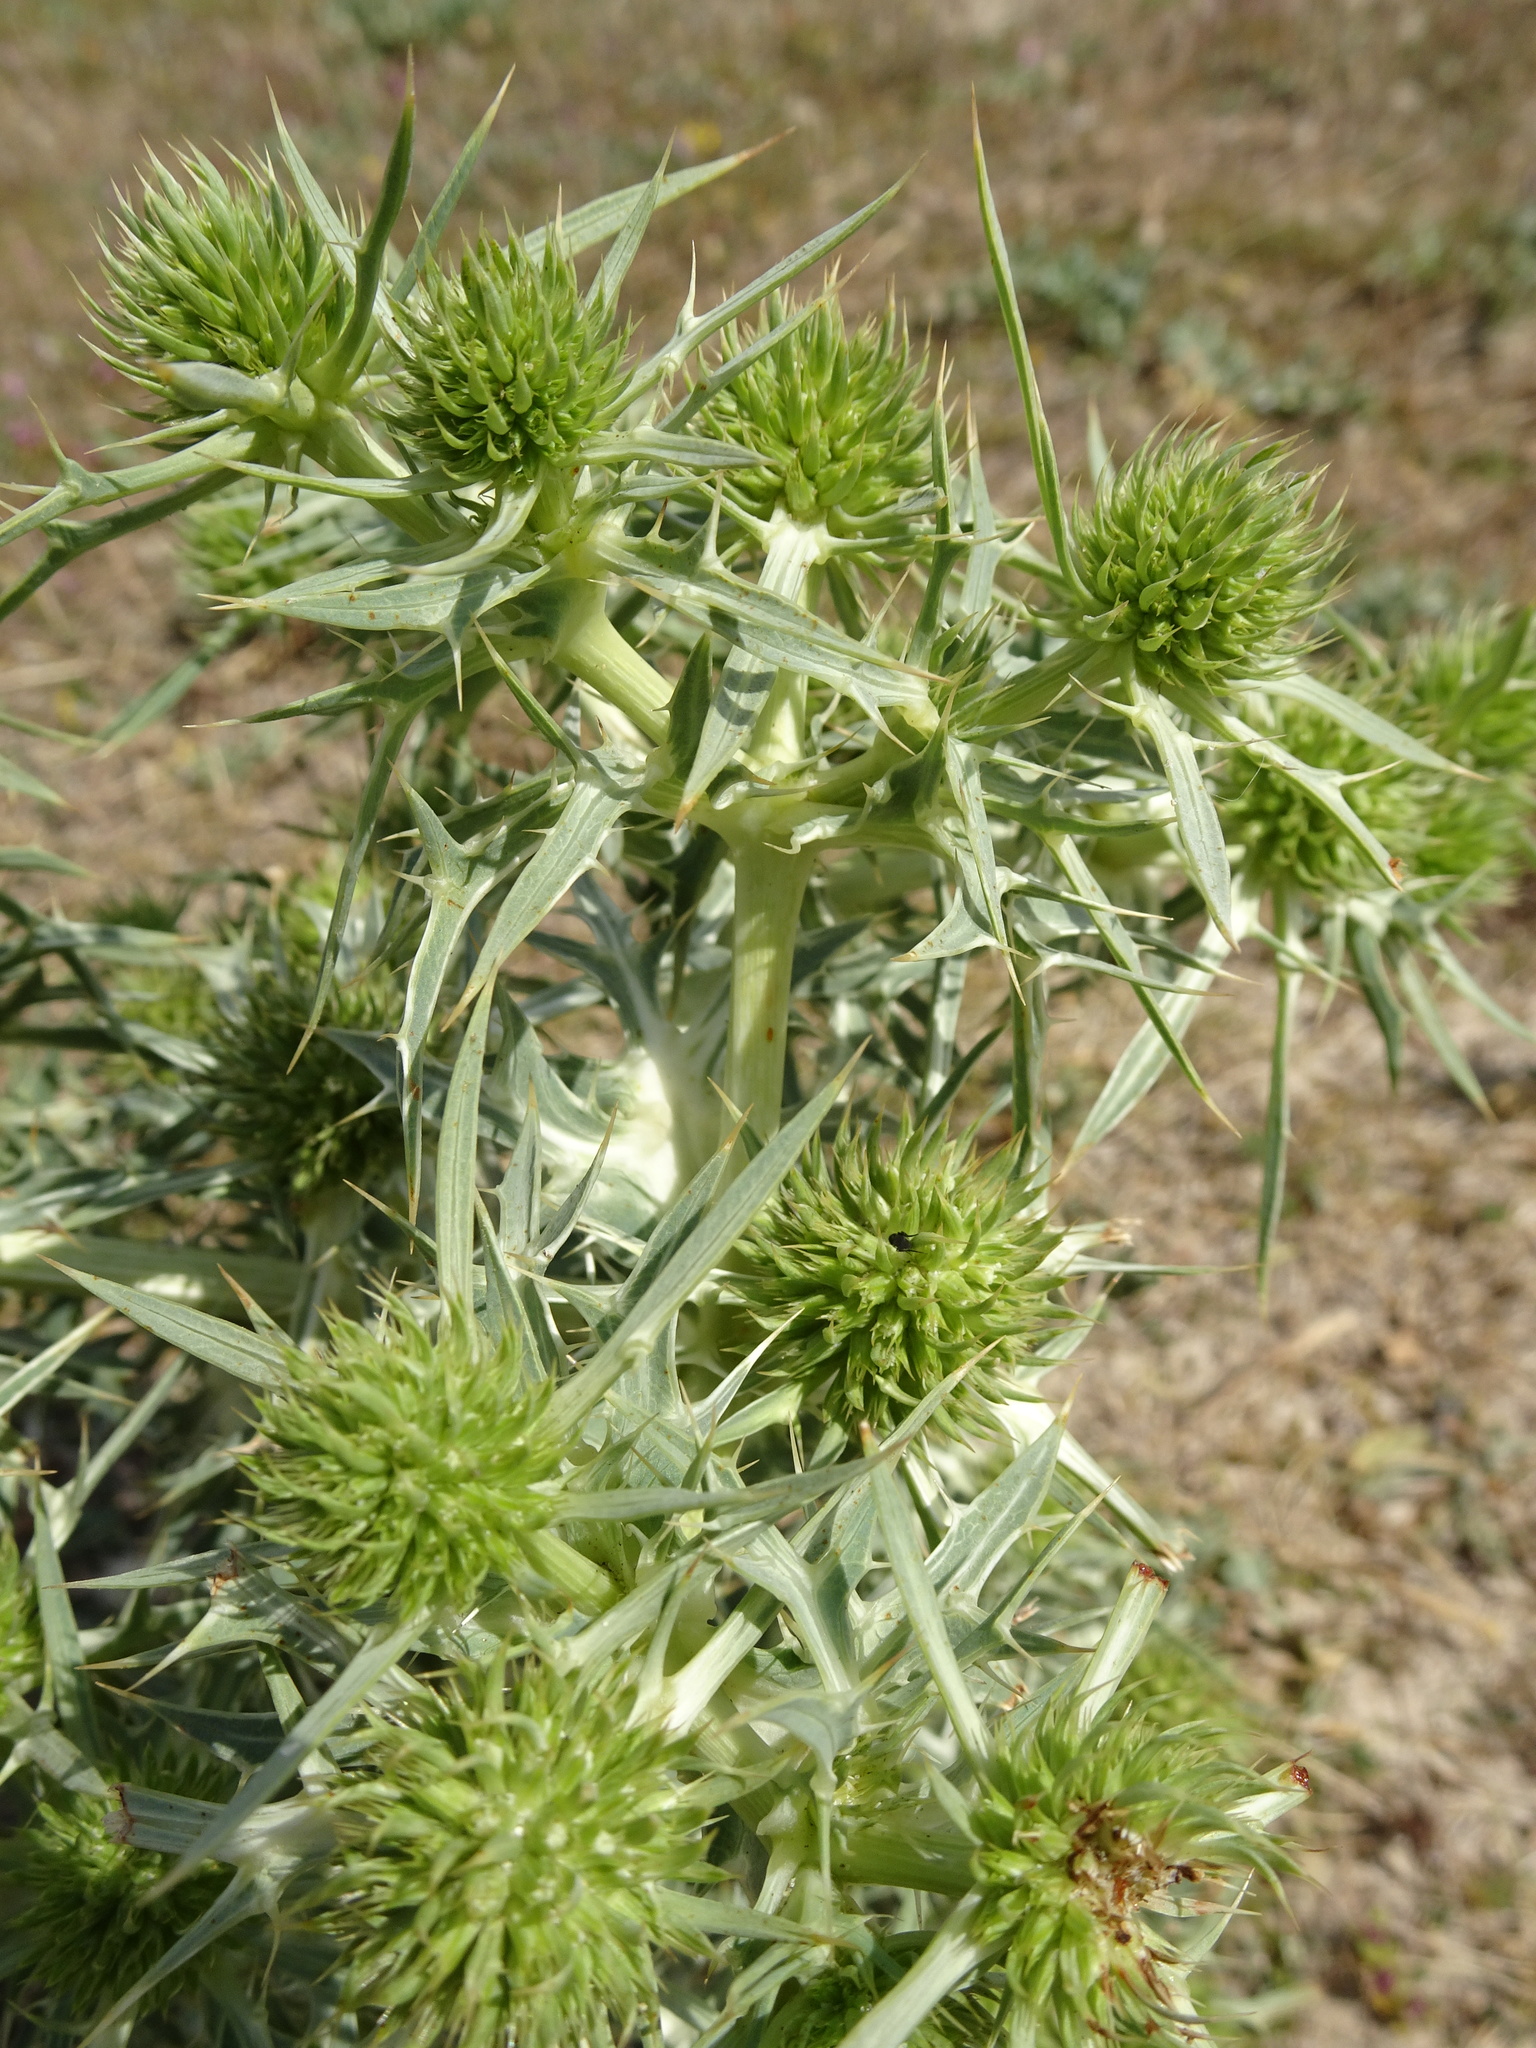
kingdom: Plantae
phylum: Tracheophyta
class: Magnoliopsida
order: Apiales
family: Apiaceae
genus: Eryngium
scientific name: Eryngium campestre
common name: Field eryngo
